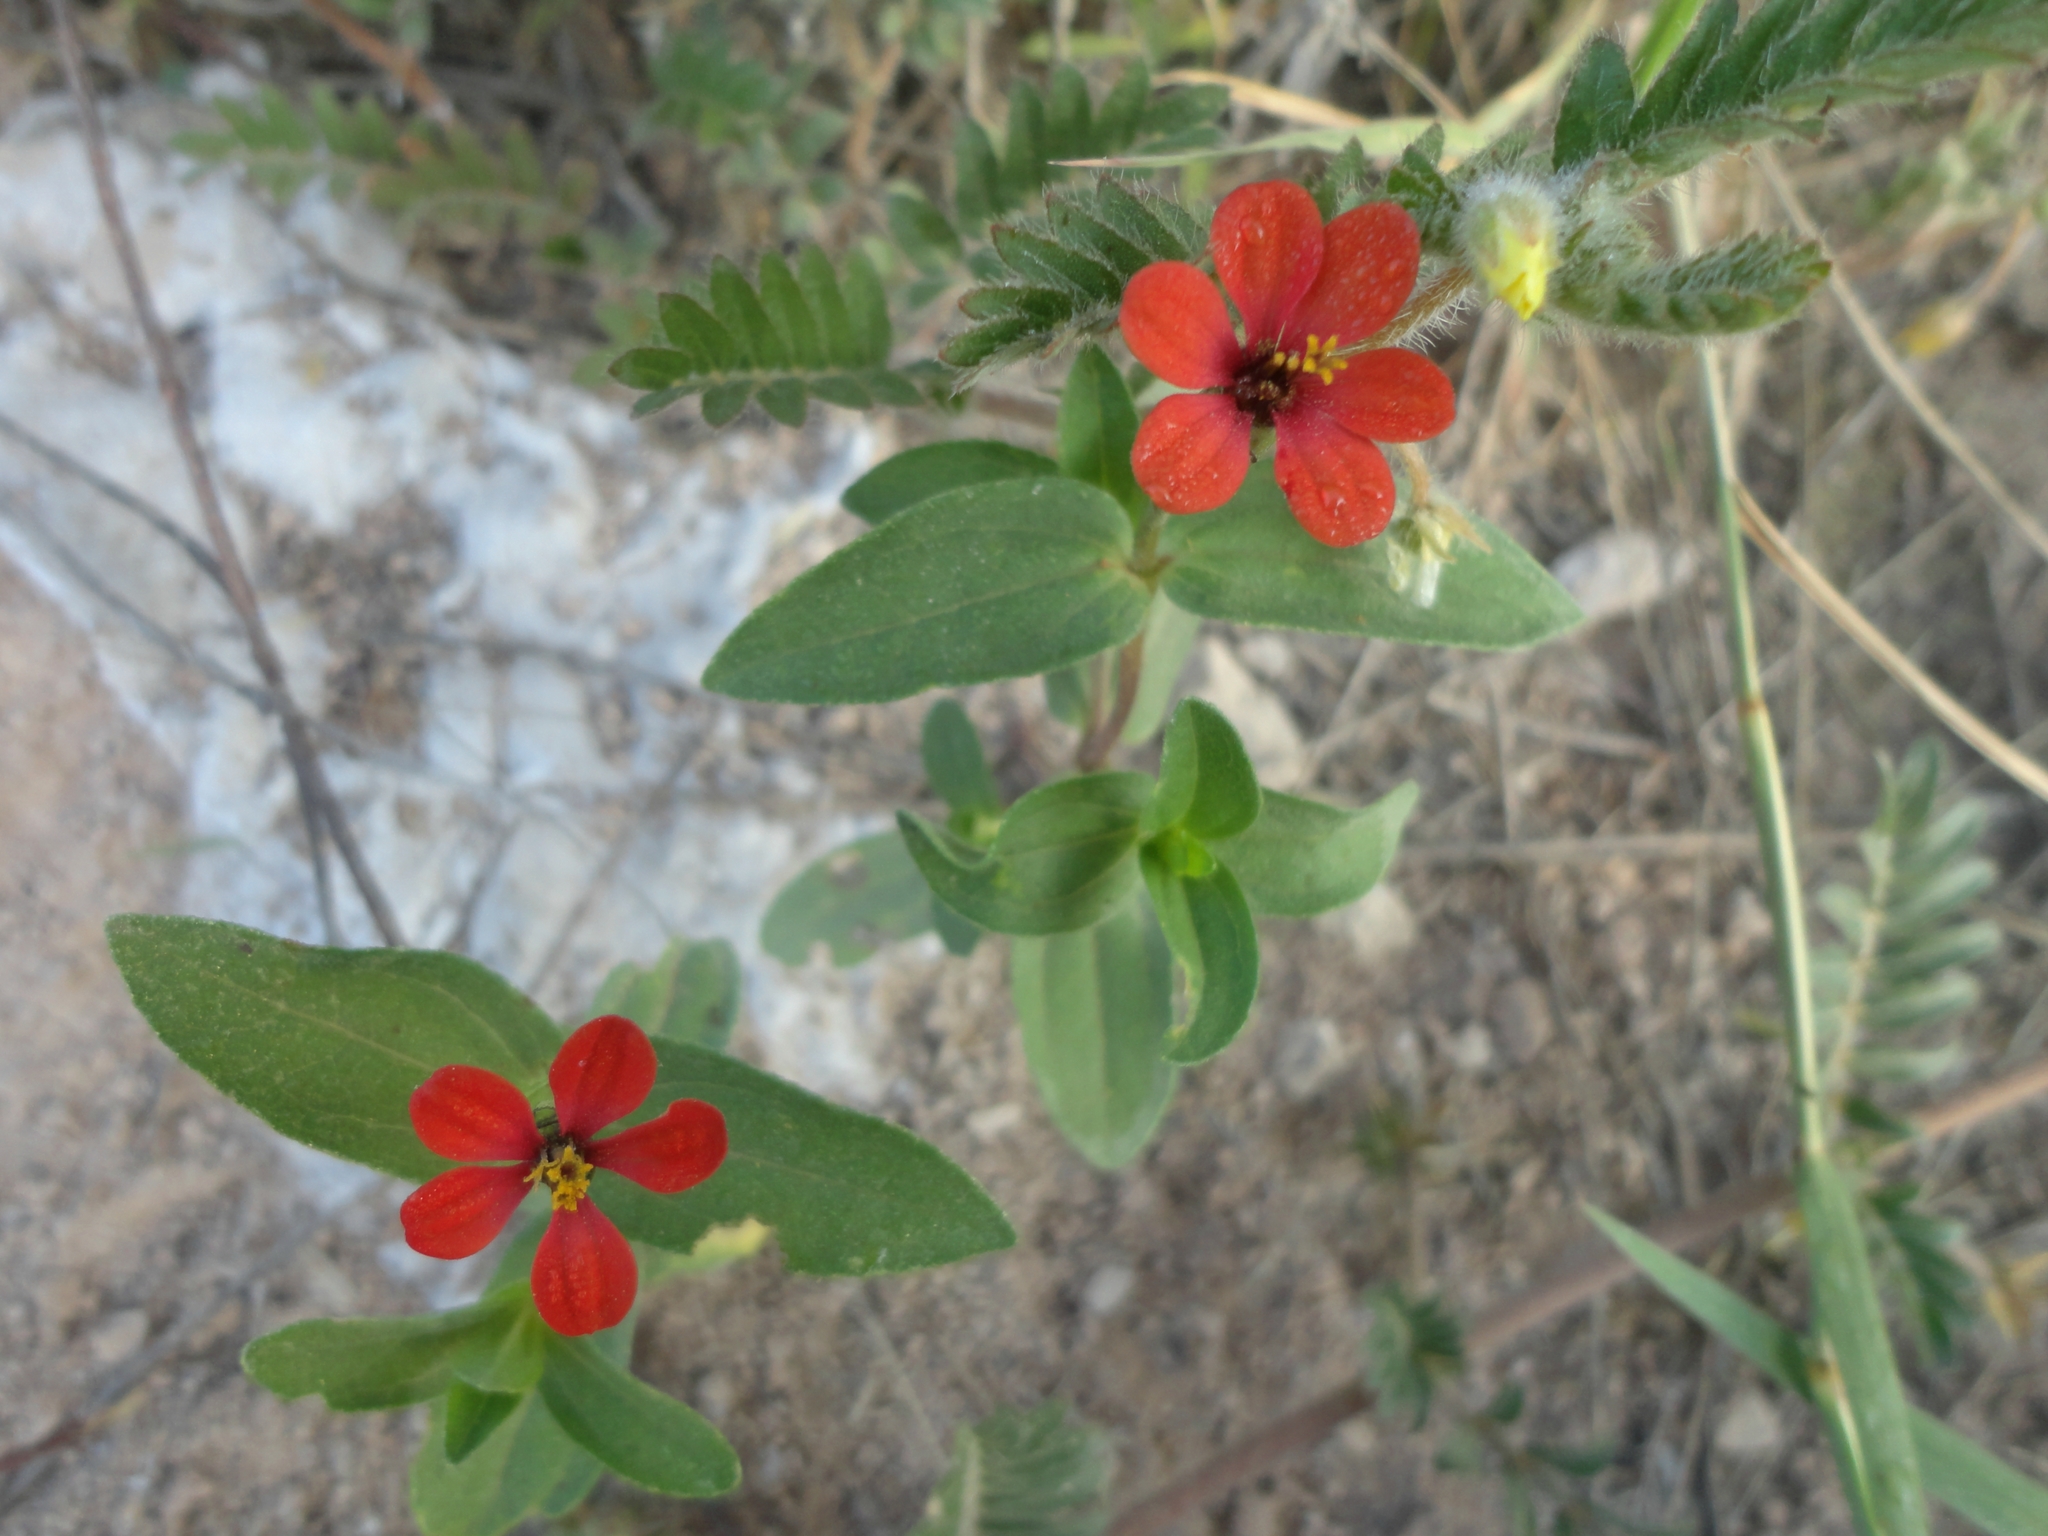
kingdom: Plantae
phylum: Tracheophyta
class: Magnoliopsida
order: Asterales
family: Asteraceae
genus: Zinnia
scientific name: Zinnia peruviana
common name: Peruvian zinnia
